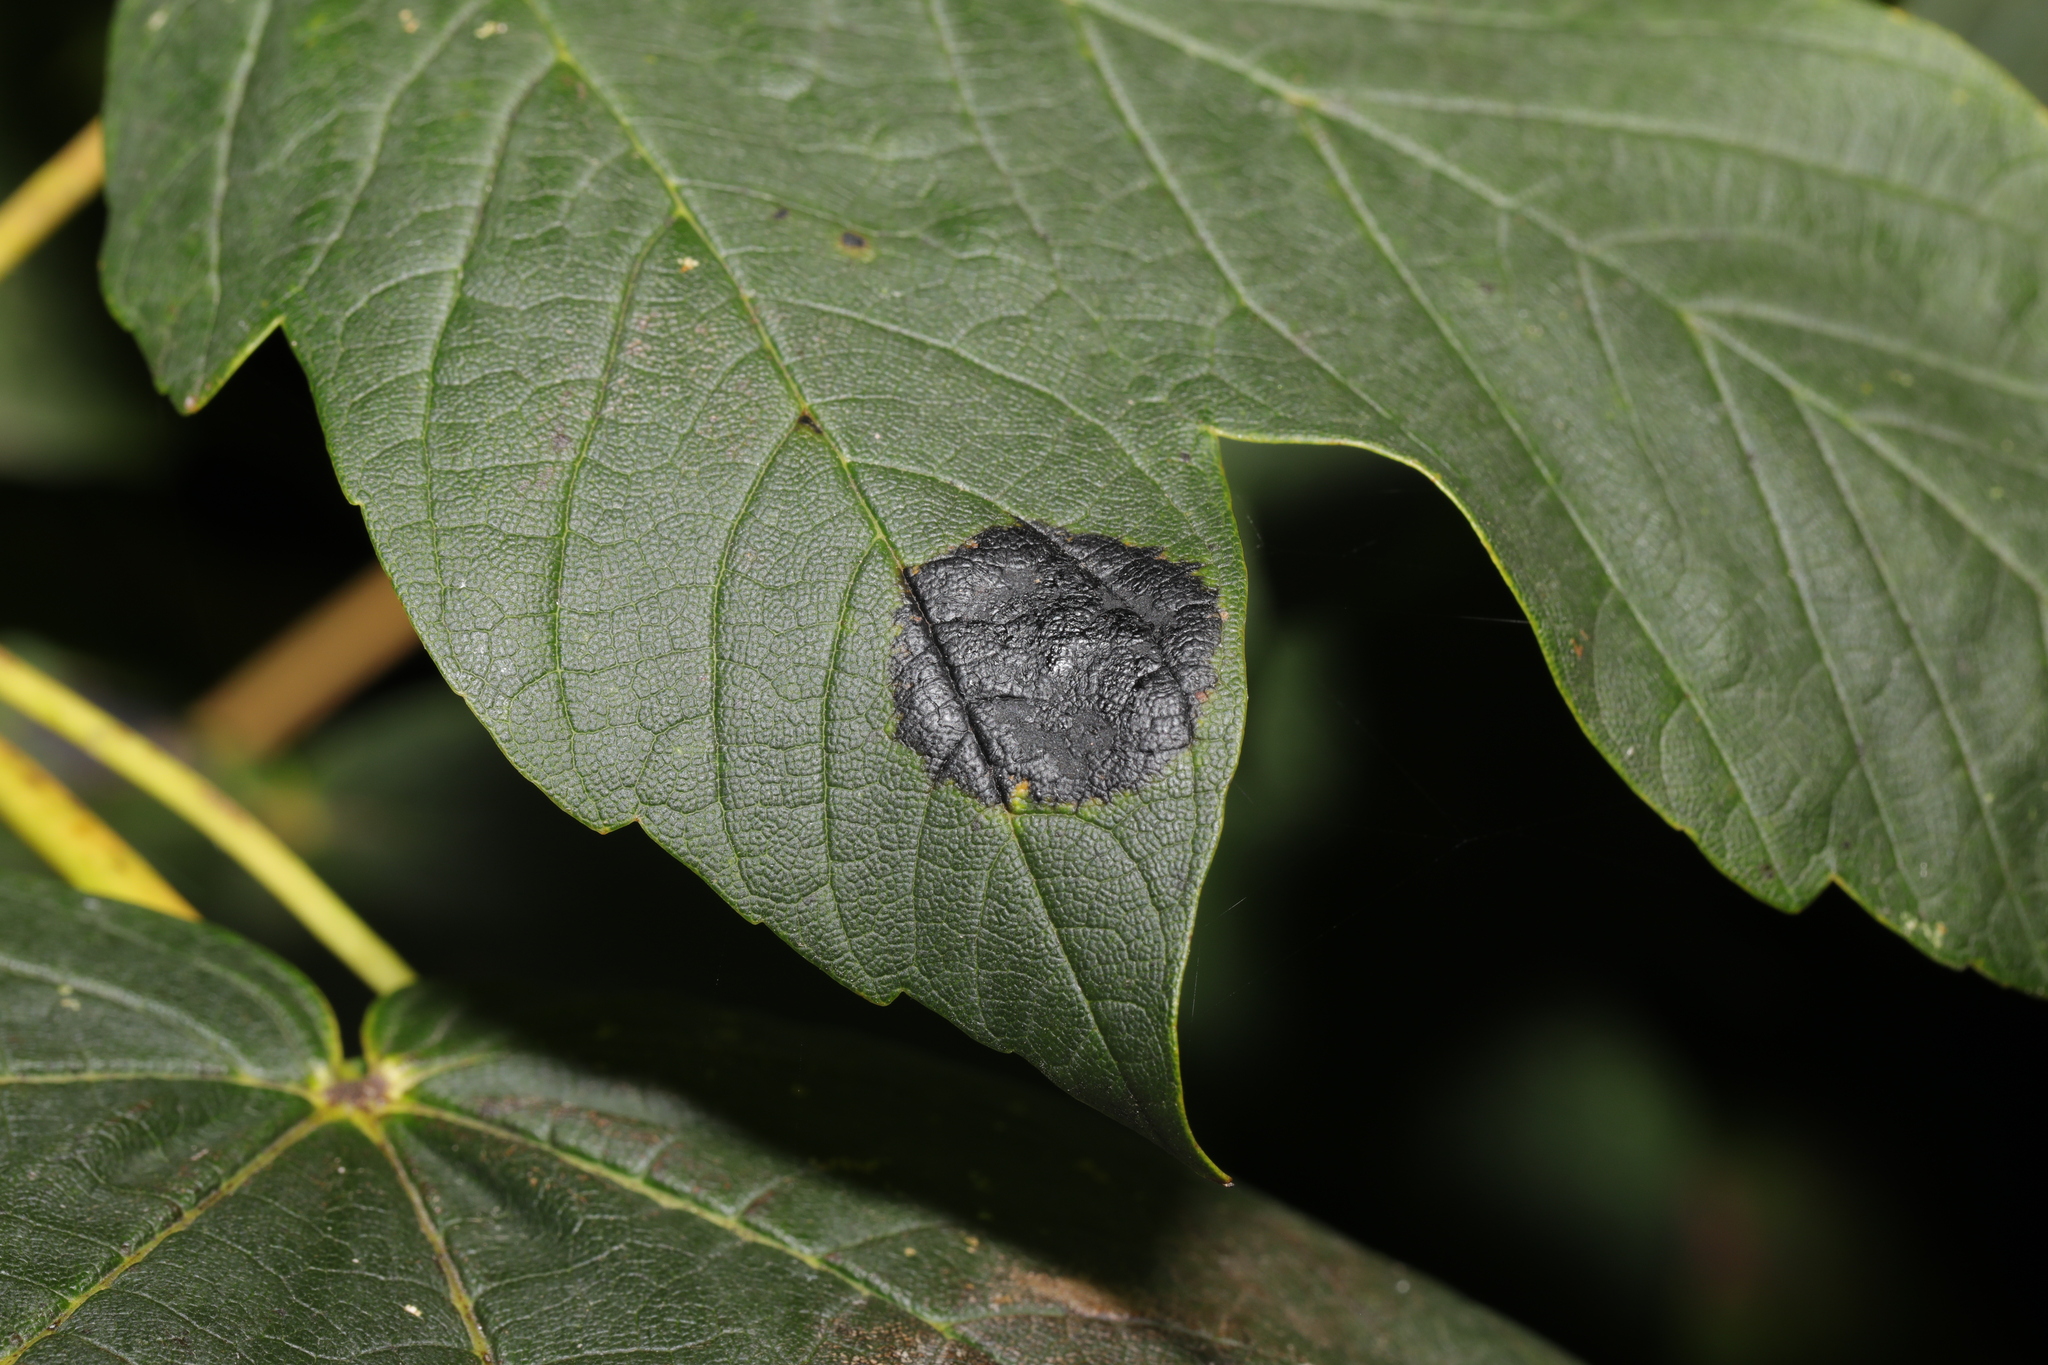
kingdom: Fungi
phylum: Ascomycota
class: Leotiomycetes
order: Rhytismatales
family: Rhytismataceae
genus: Rhytisma
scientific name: Rhytisma acerinum
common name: European tar spot
